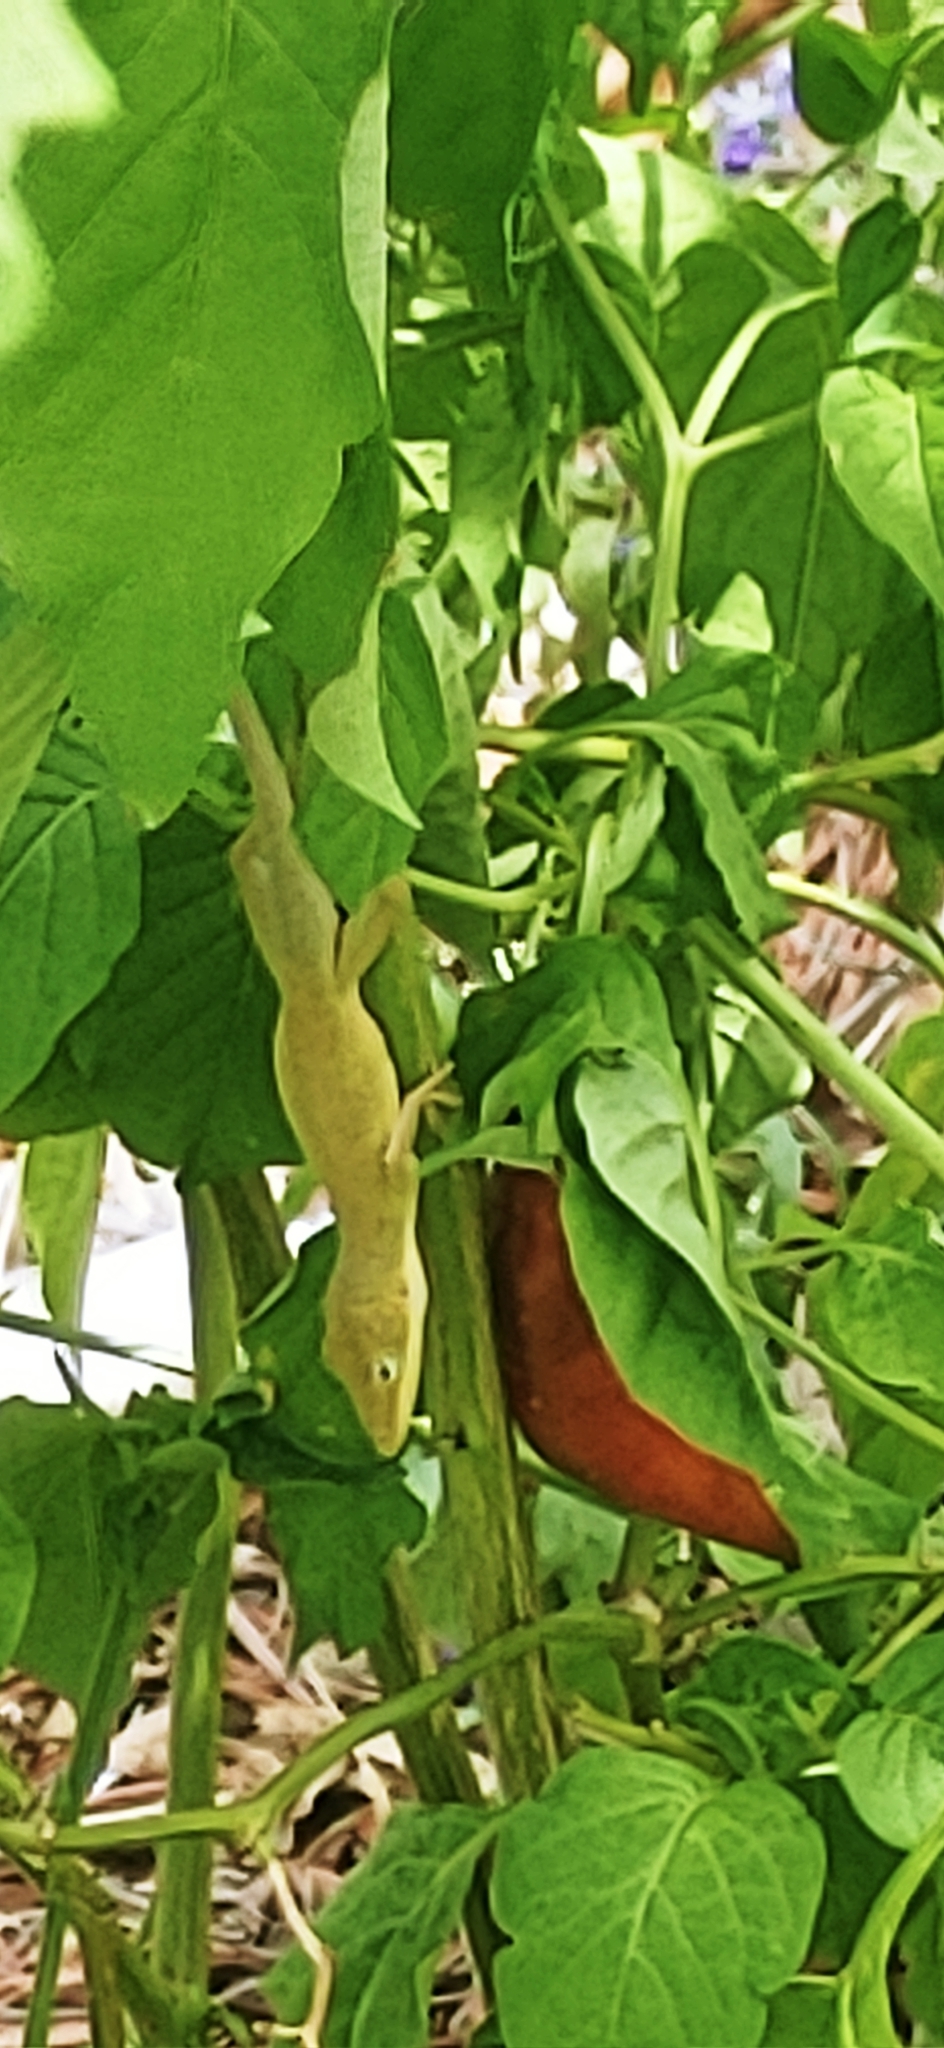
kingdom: Animalia
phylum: Chordata
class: Squamata
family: Dactyloidae
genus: Anolis
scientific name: Anolis carolinensis
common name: Green anole
